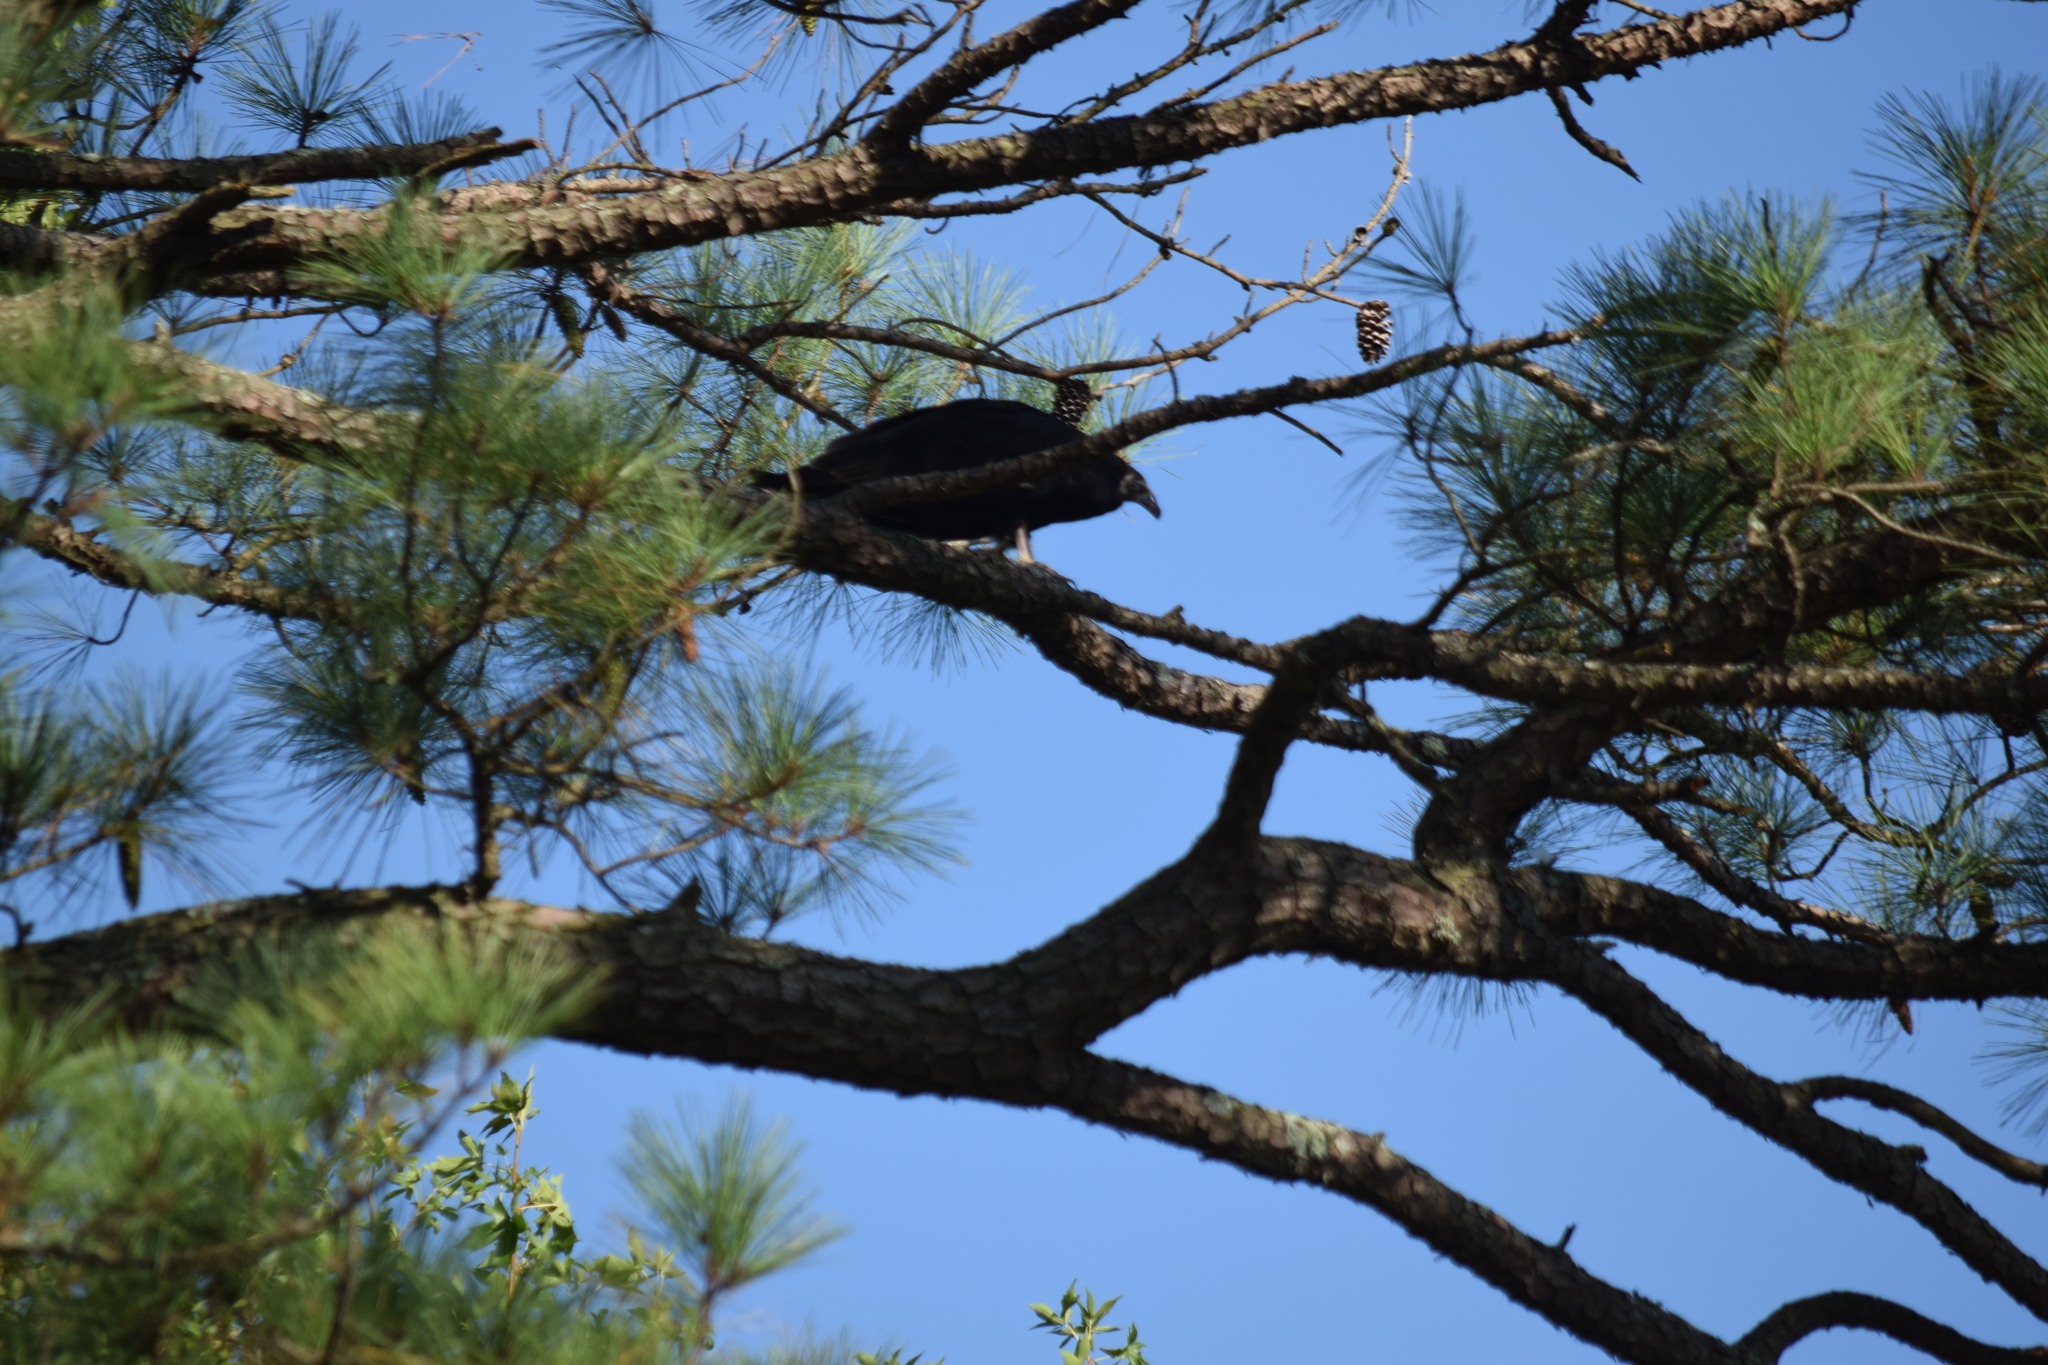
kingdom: Animalia
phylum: Chordata
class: Aves
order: Accipitriformes
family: Cathartidae
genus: Coragyps
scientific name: Coragyps atratus
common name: Black vulture
